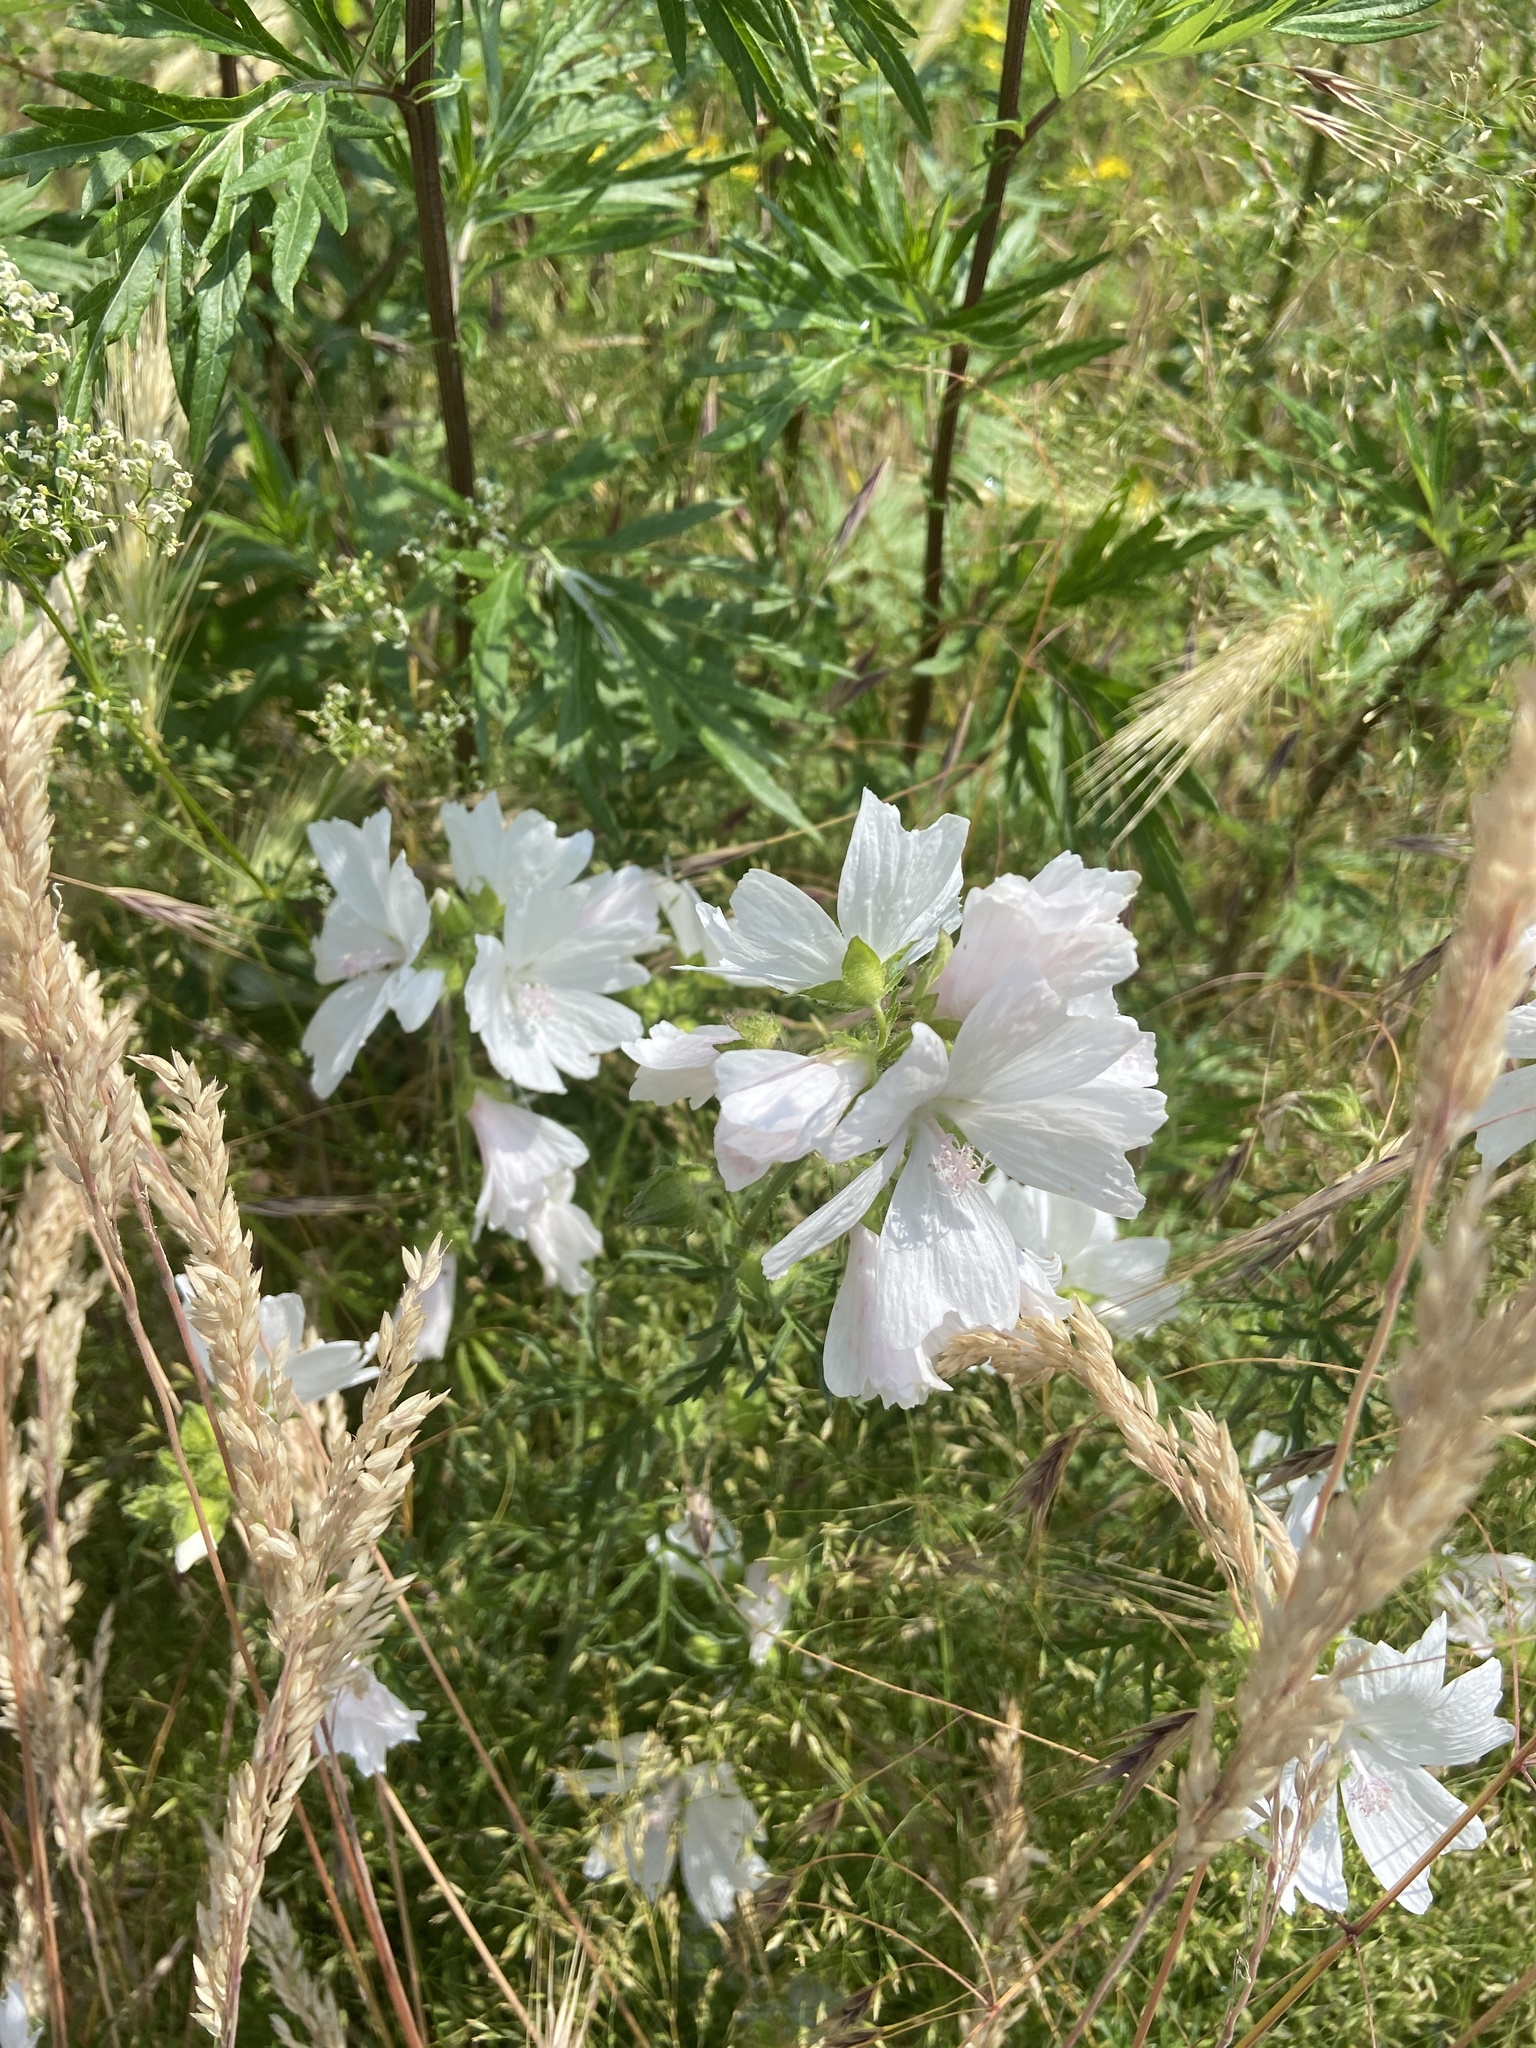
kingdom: Plantae
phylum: Tracheophyta
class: Magnoliopsida
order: Malvales
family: Malvaceae
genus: Malva
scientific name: Malva moschata
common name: Musk mallow
